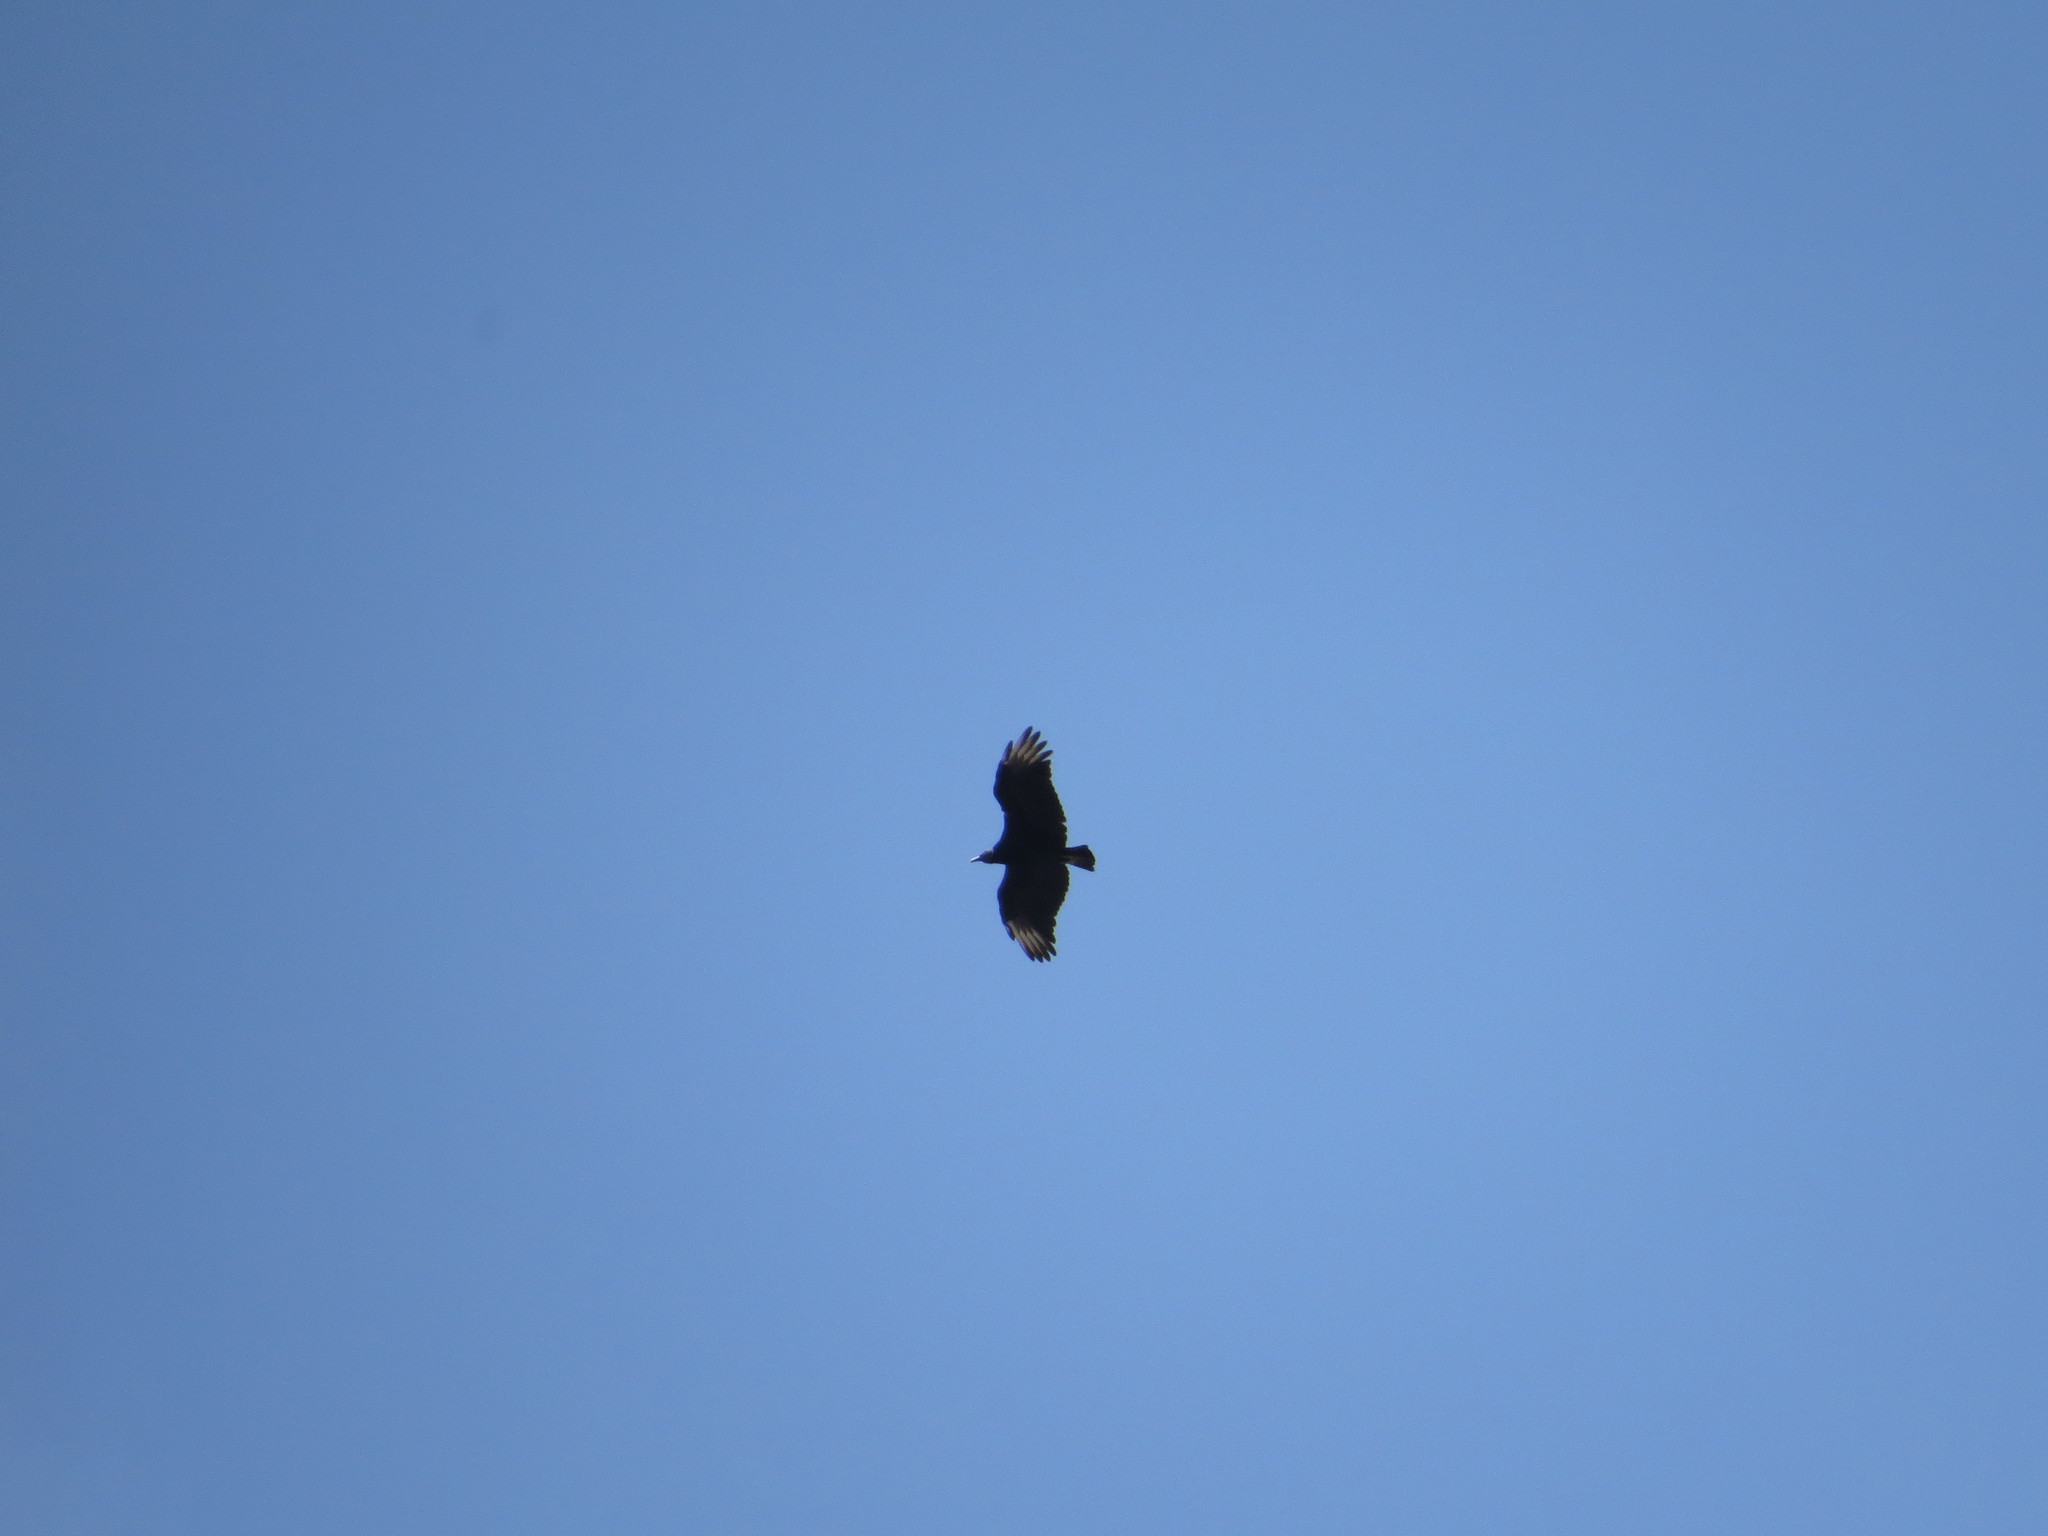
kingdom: Animalia
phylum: Chordata
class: Aves
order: Accipitriformes
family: Cathartidae
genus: Coragyps
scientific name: Coragyps atratus
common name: Black vulture
